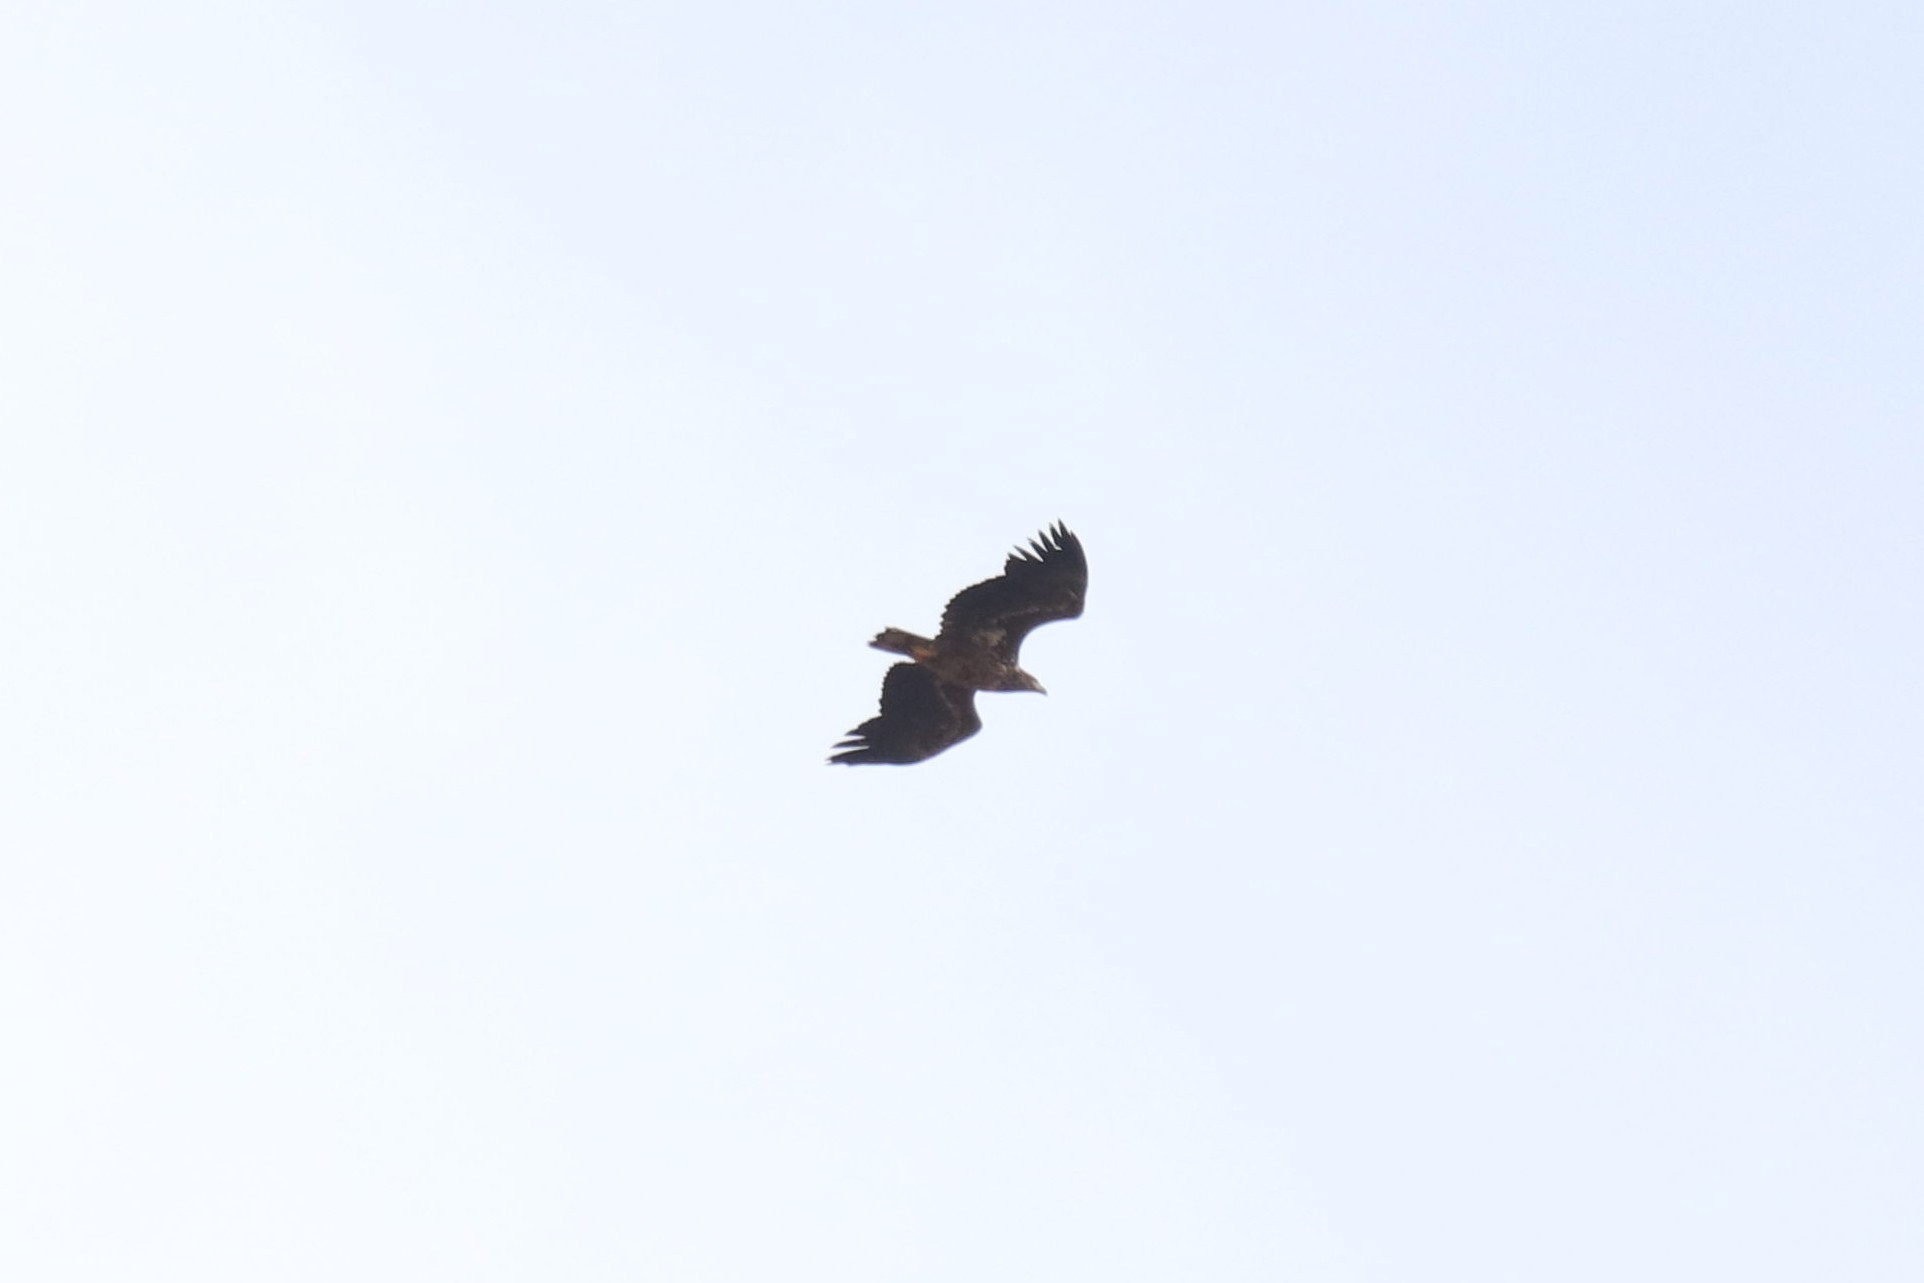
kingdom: Animalia
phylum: Chordata
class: Aves
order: Accipitriformes
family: Accipitridae
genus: Haliaeetus
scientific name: Haliaeetus albicilla
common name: White-tailed eagle
